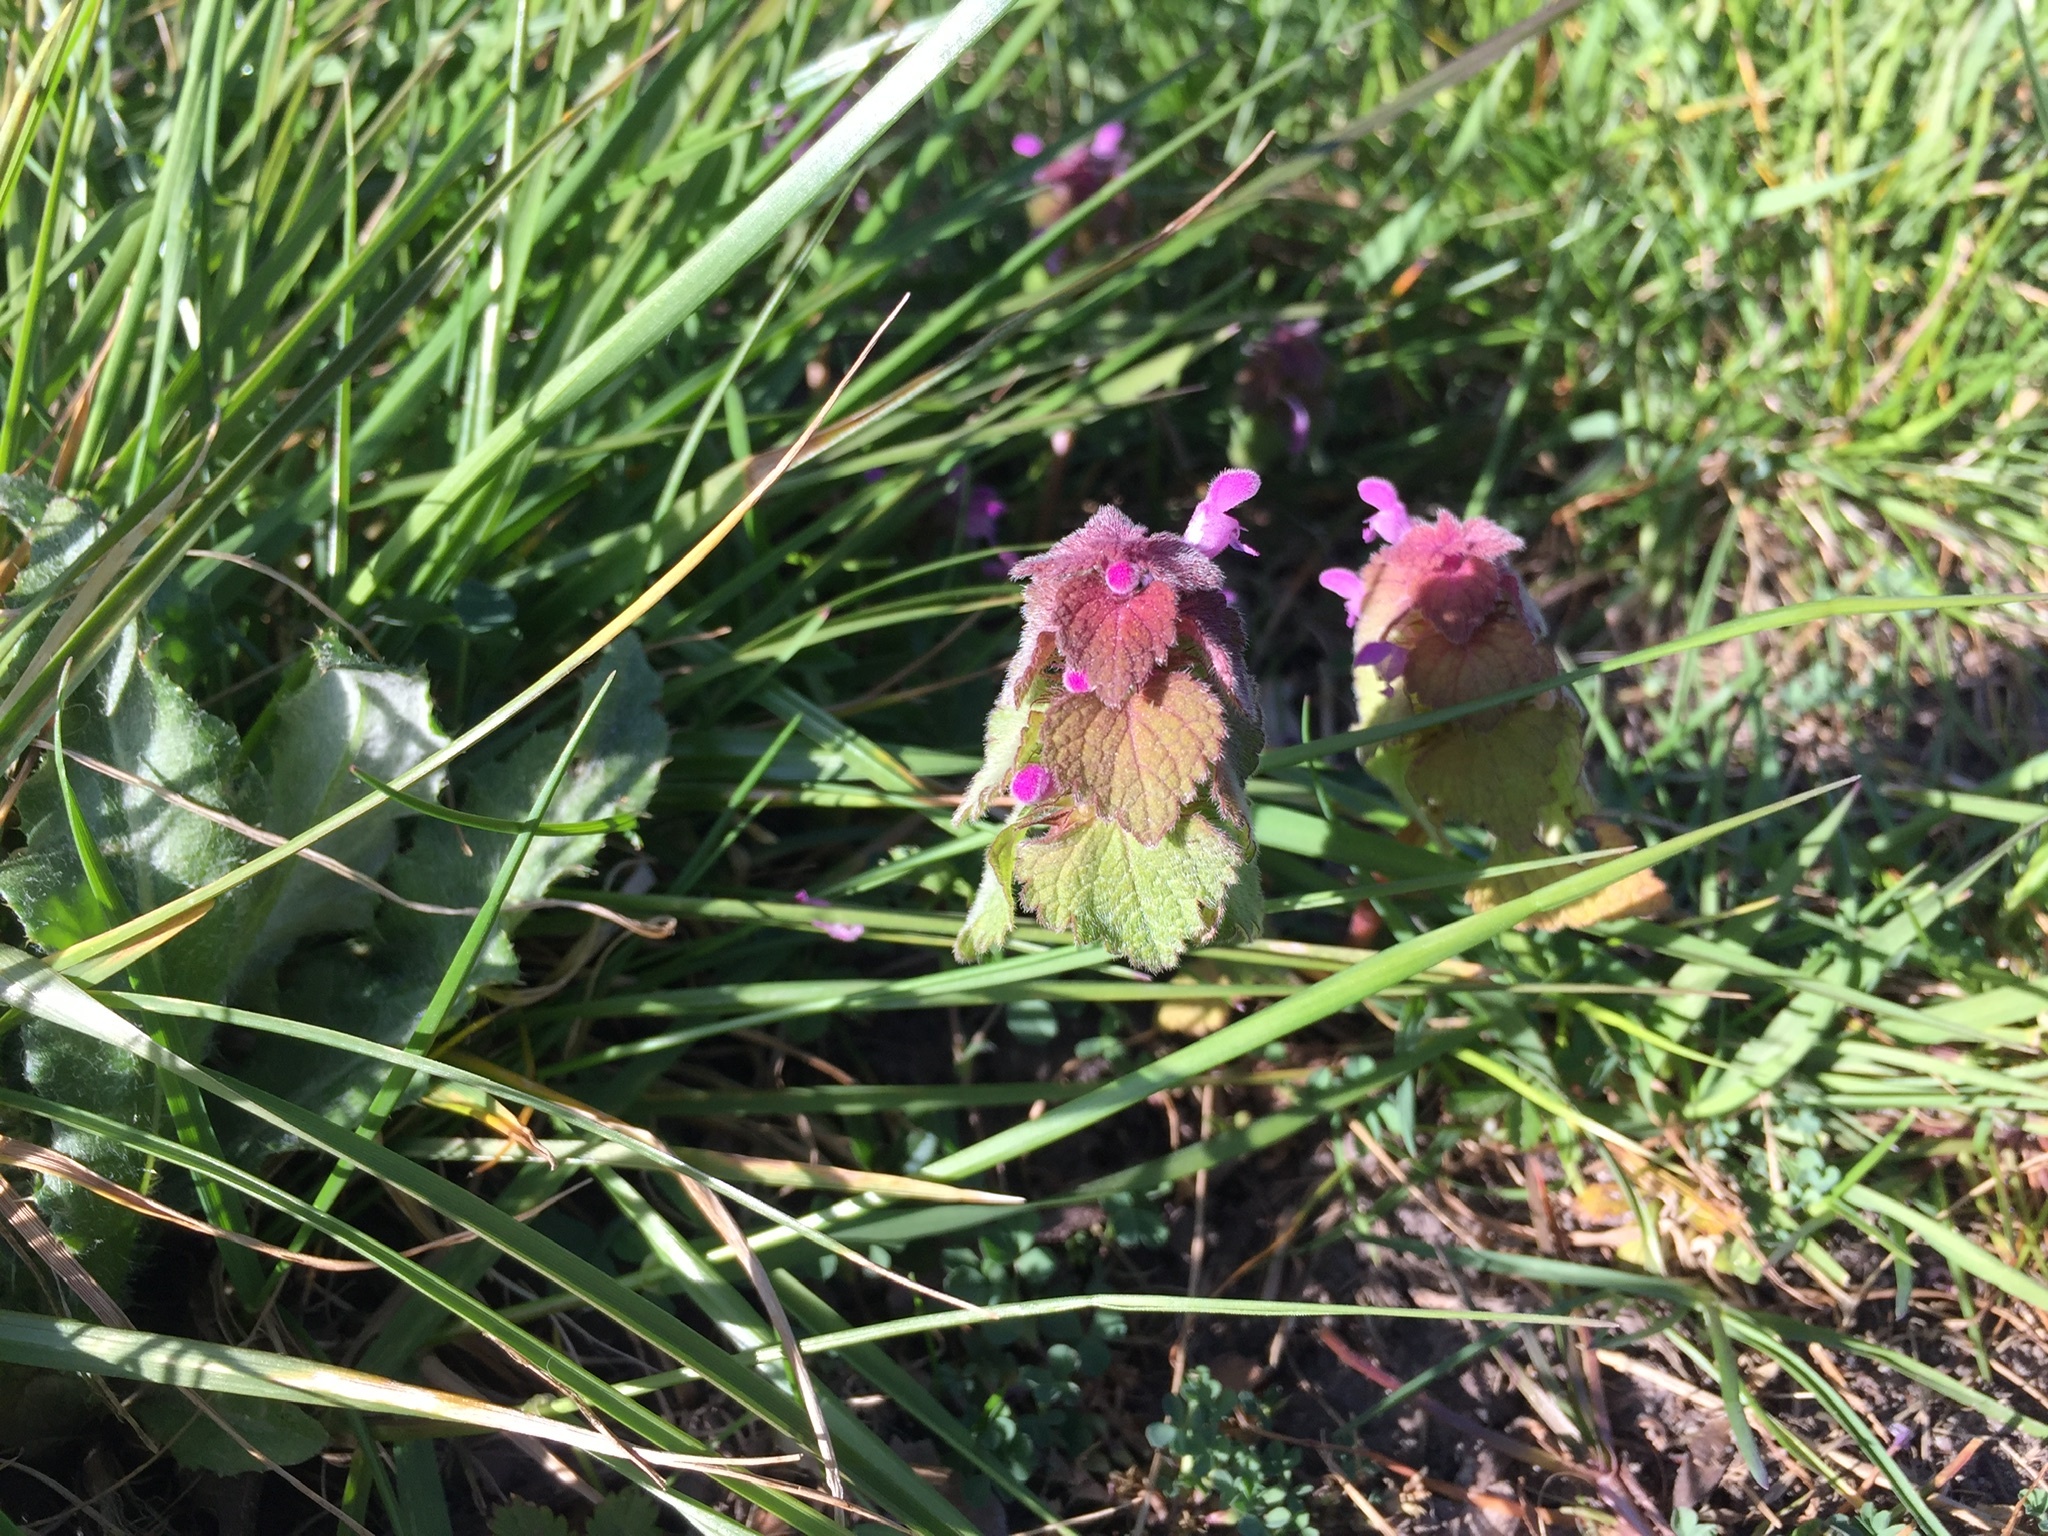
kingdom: Plantae
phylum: Tracheophyta
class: Magnoliopsida
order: Lamiales
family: Lamiaceae
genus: Lamium
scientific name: Lamium purpureum
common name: Red dead-nettle
